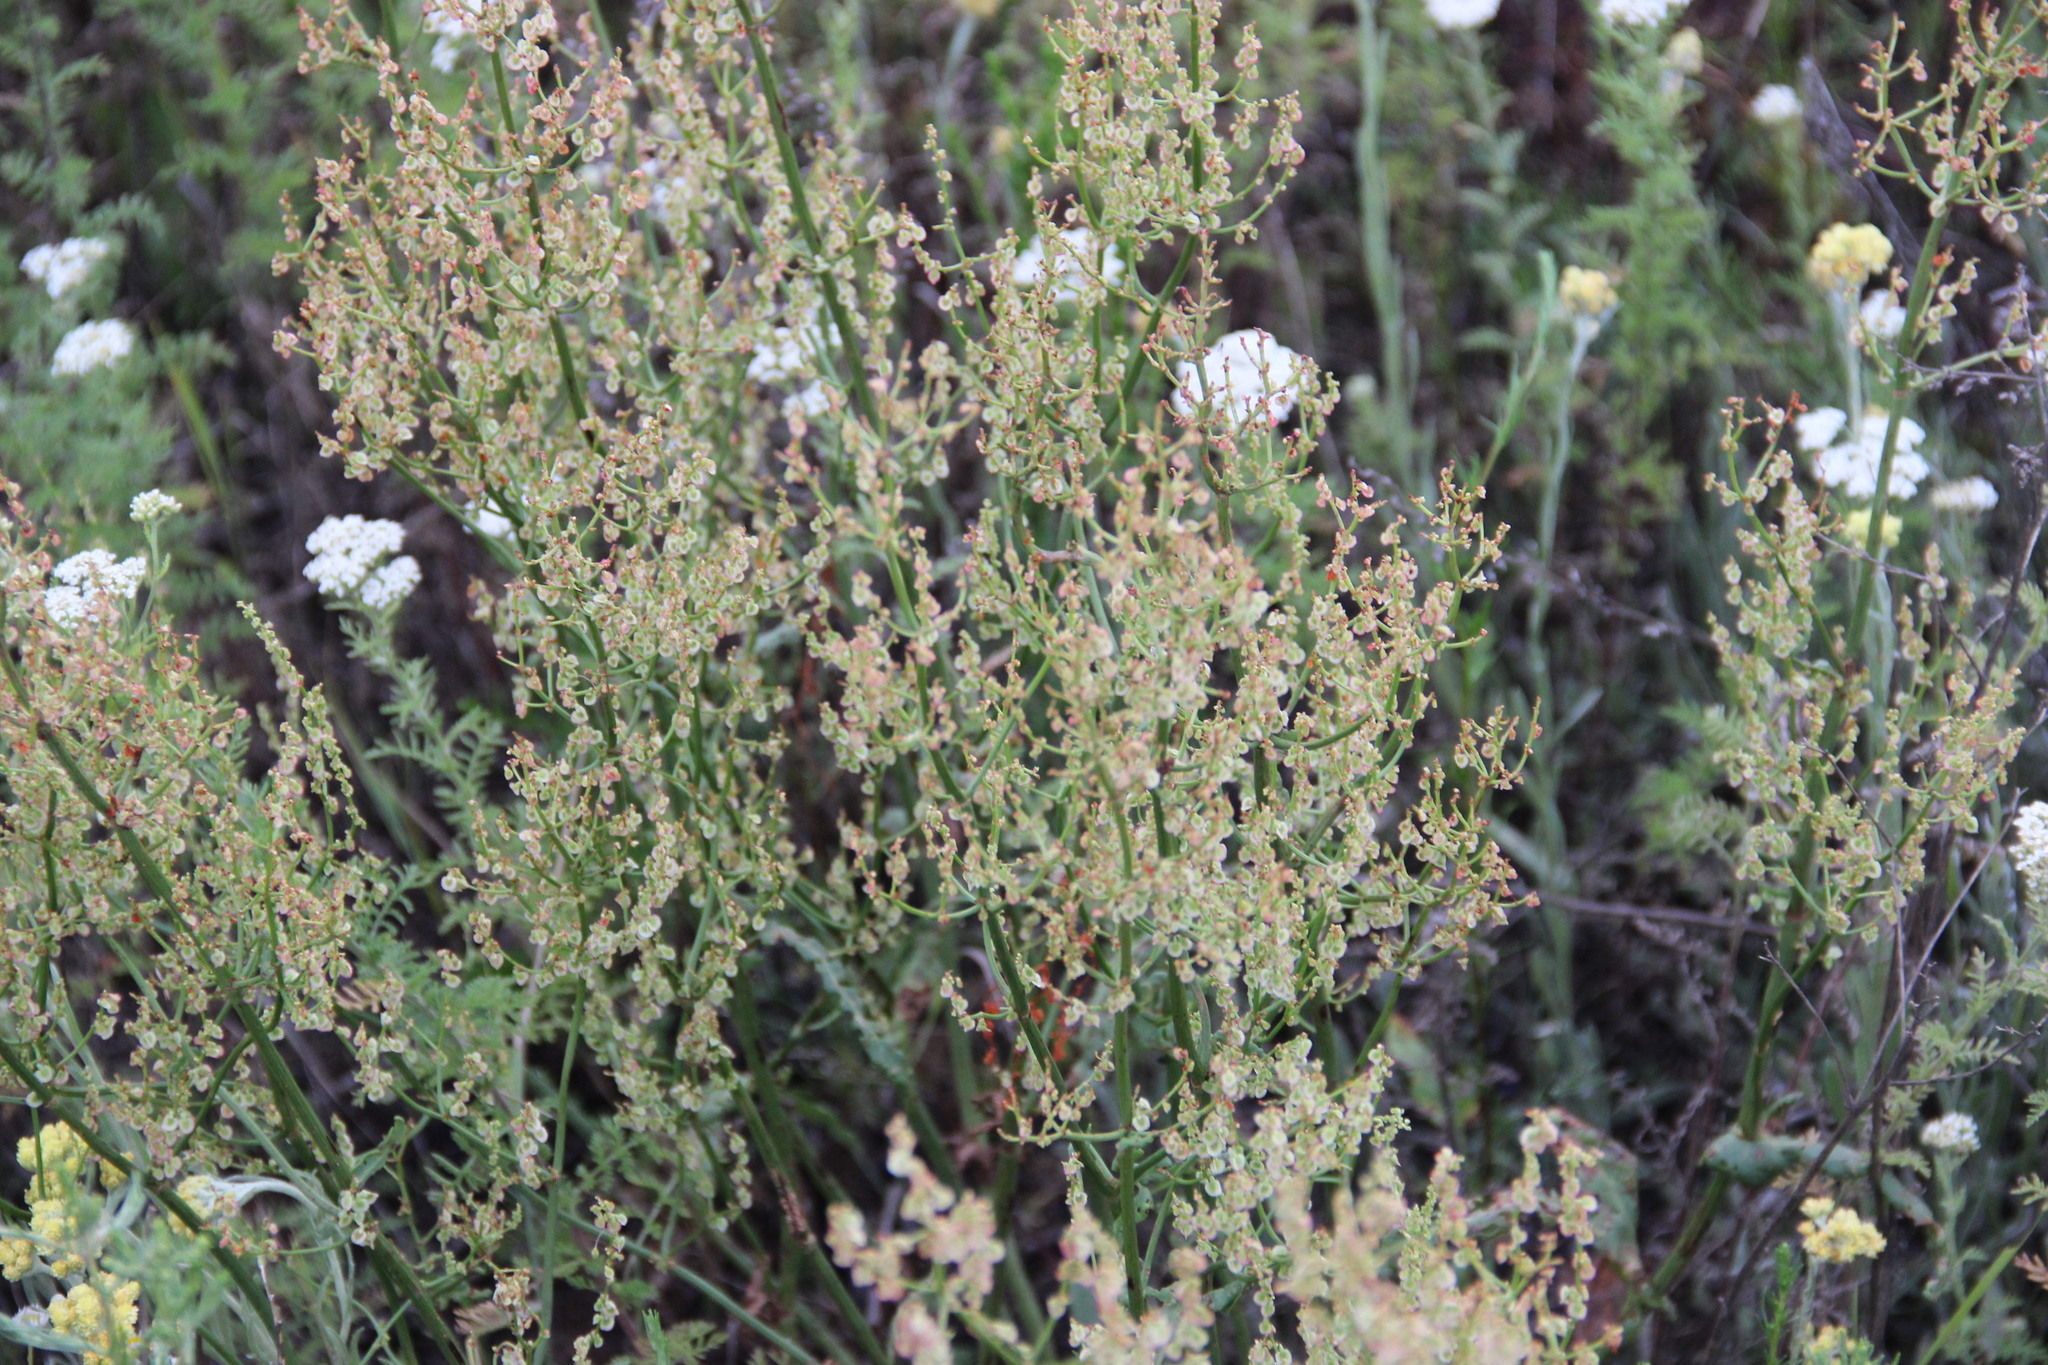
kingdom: Plantae
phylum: Tracheophyta
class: Magnoliopsida
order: Caryophyllales
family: Polygonaceae
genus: Rumex
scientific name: Rumex thyrsiflorus
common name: Garden sorrel
